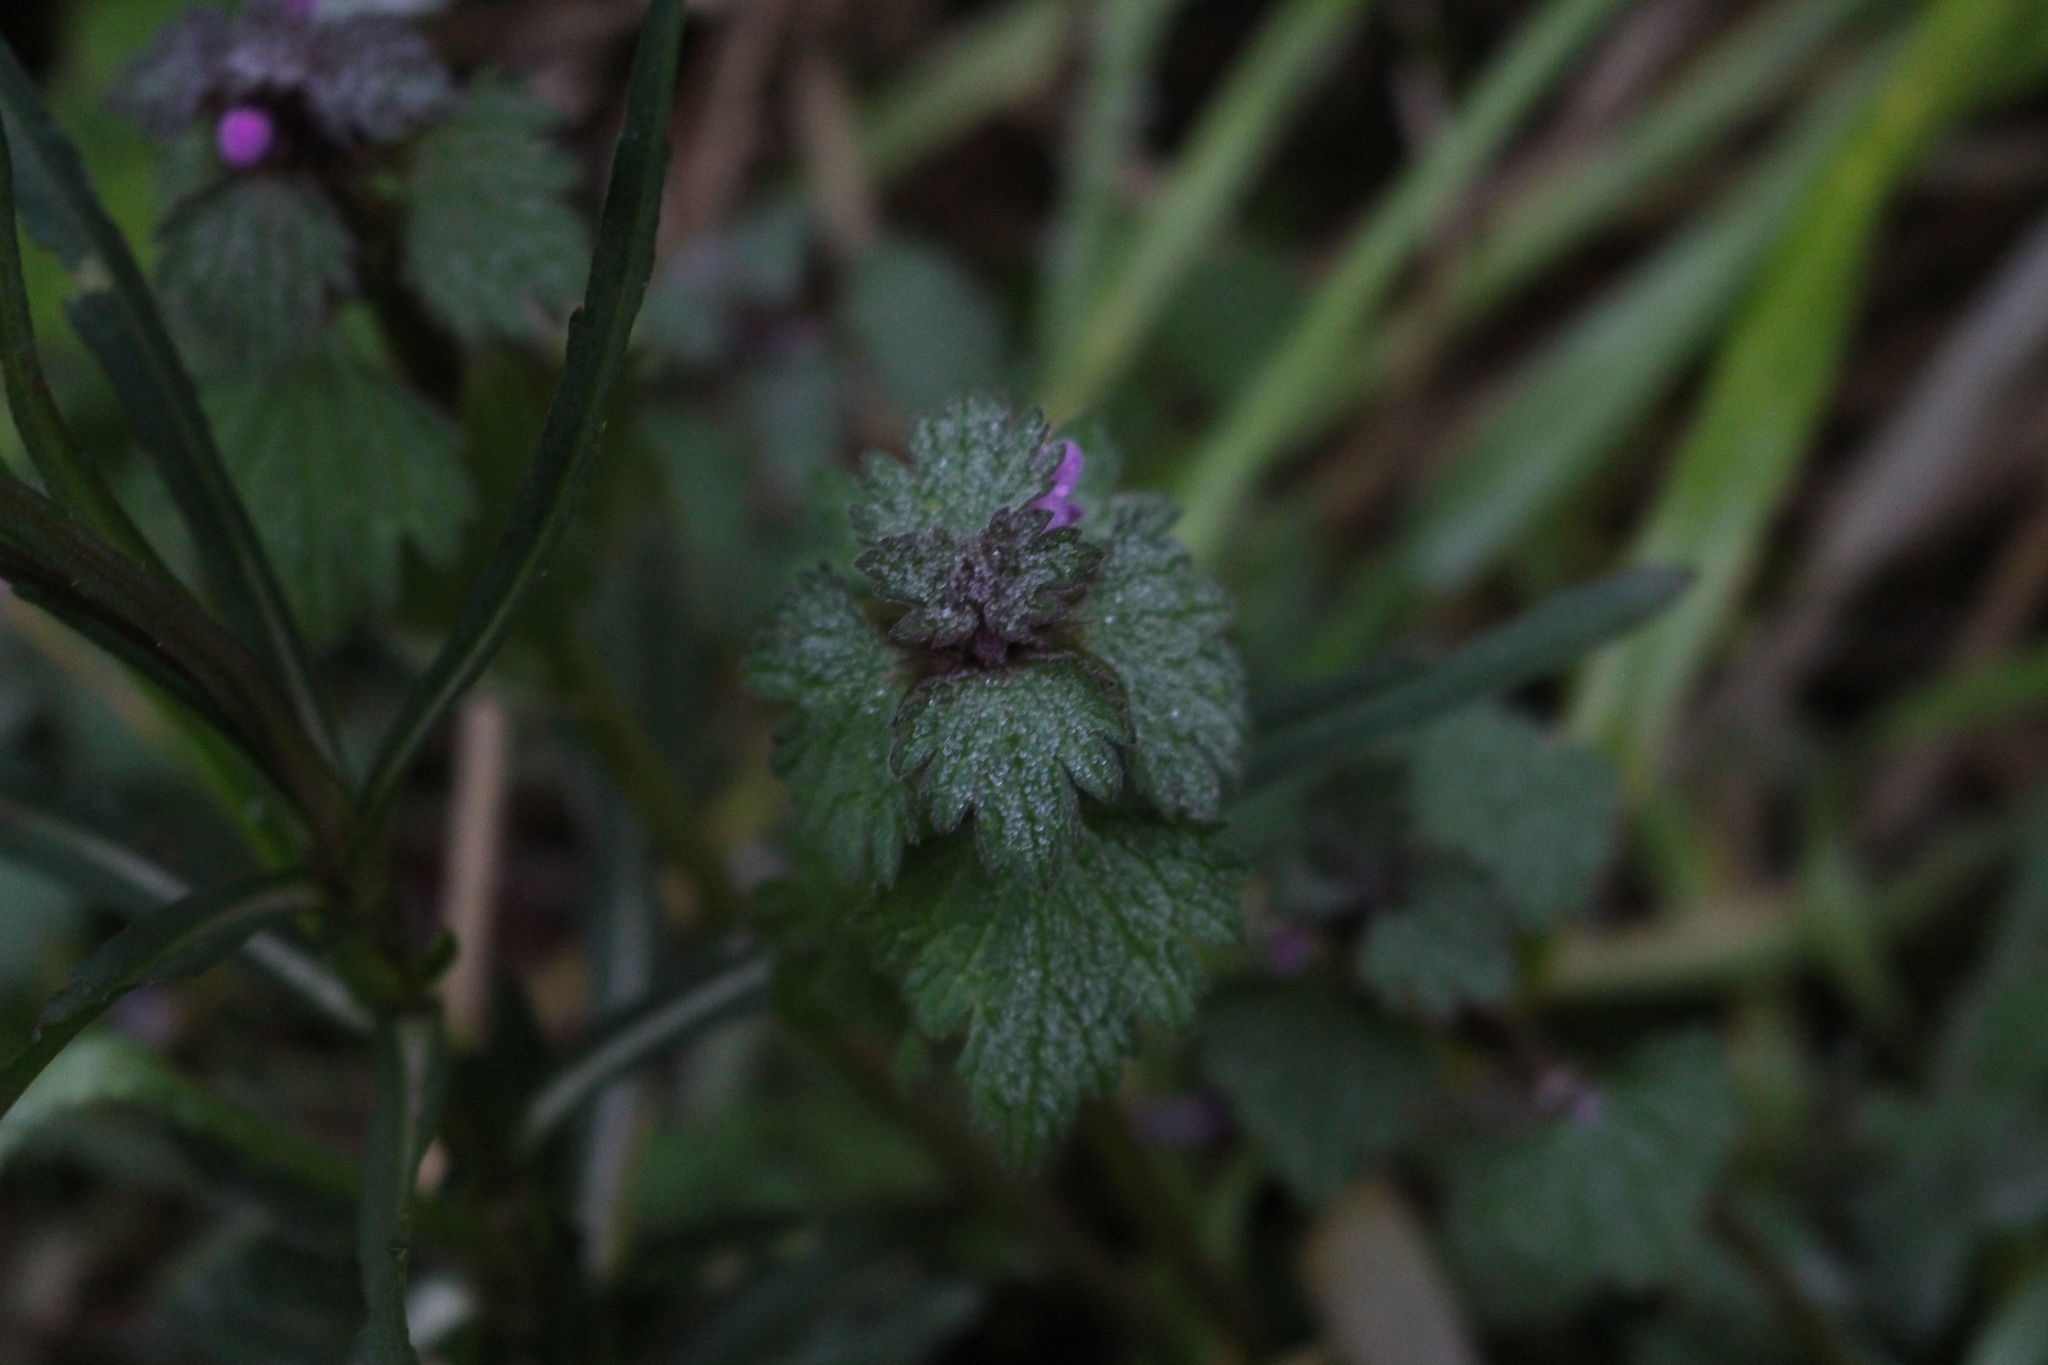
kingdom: Plantae
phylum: Tracheophyta
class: Magnoliopsida
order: Lamiales
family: Lamiaceae
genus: Lamium
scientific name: Lamium hybridum
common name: Cut-leaved dead-nettle
